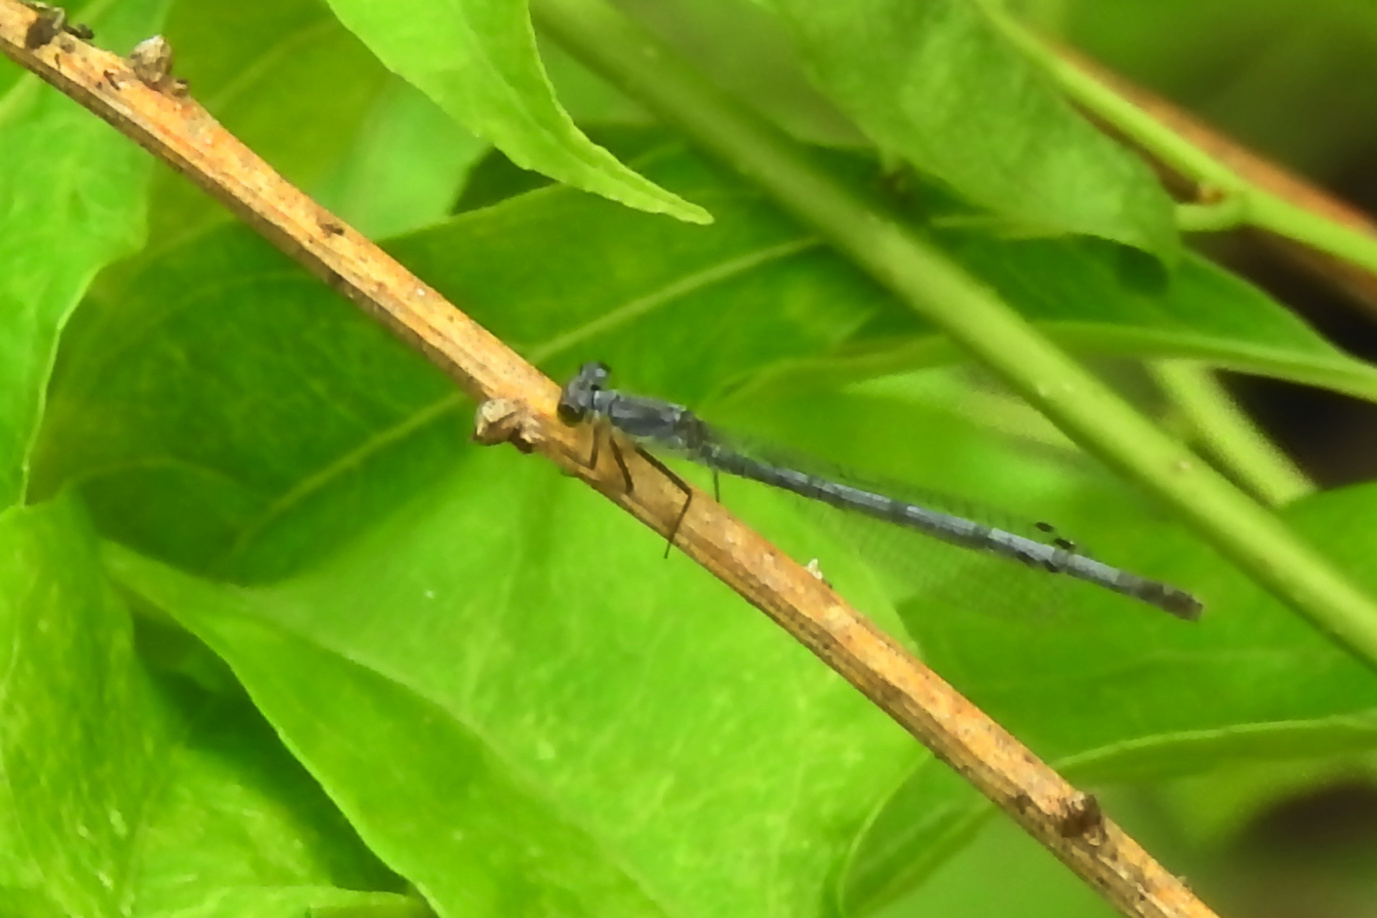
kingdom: Animalia
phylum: Arthropoda
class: Insecta
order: Odonata
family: Coenagrionidae
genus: Ischnura
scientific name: Ischnura posita
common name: Fragile forktail
